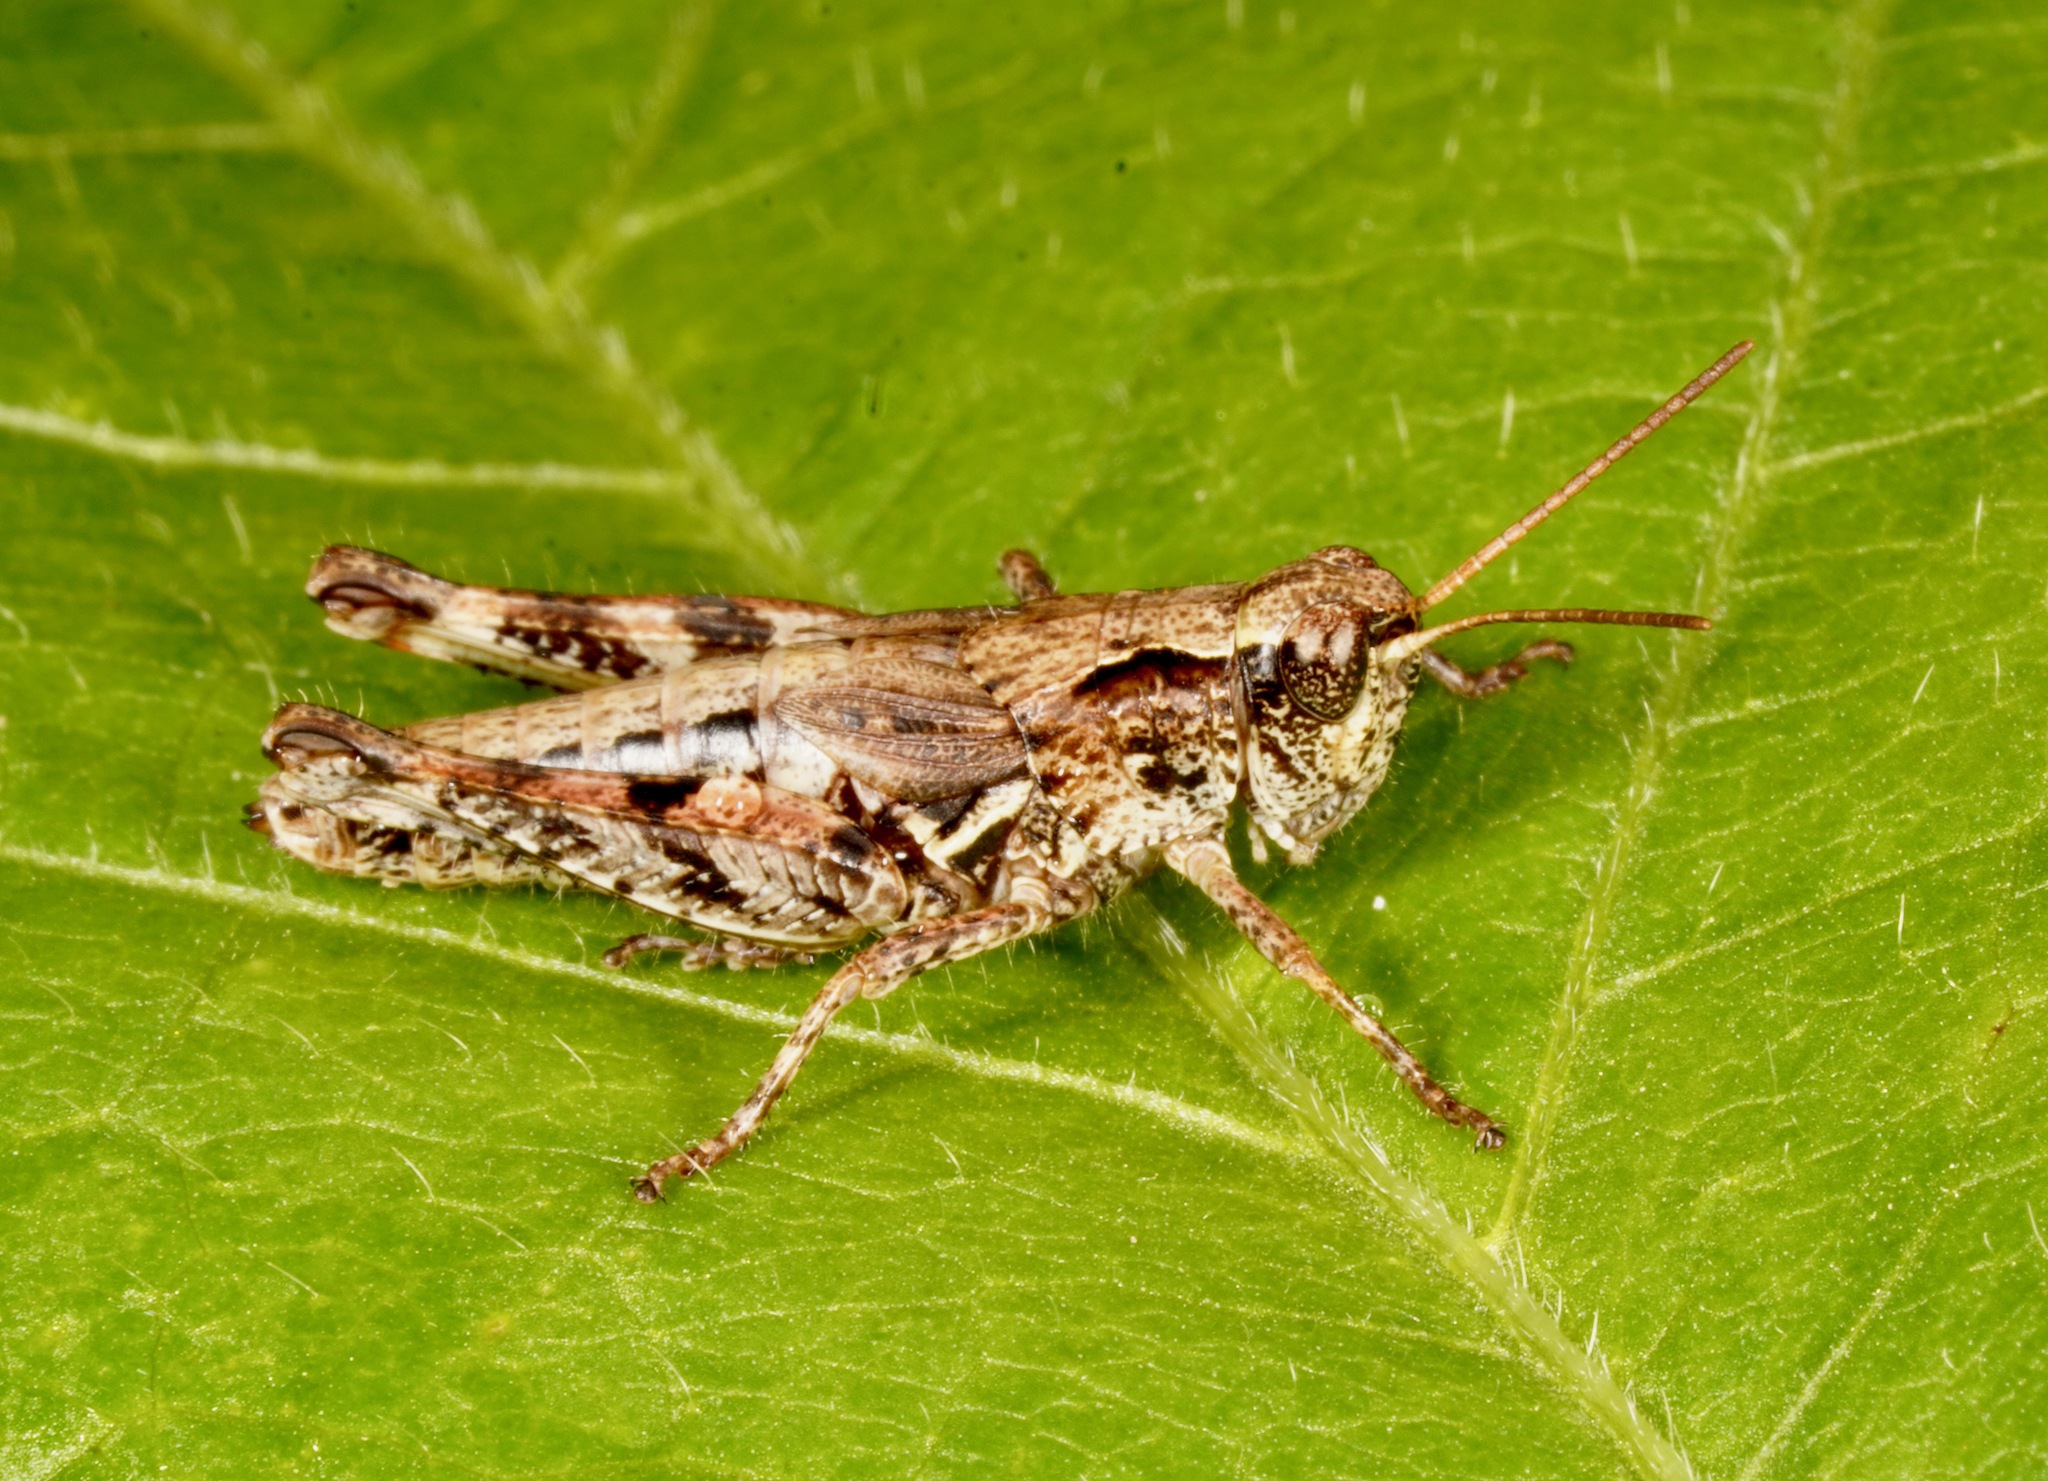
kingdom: Animalia
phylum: Arthropoda
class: Insecta
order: Orthoptera
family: Acrididae
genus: Phaulacridium
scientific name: Phaulacridium marginale
